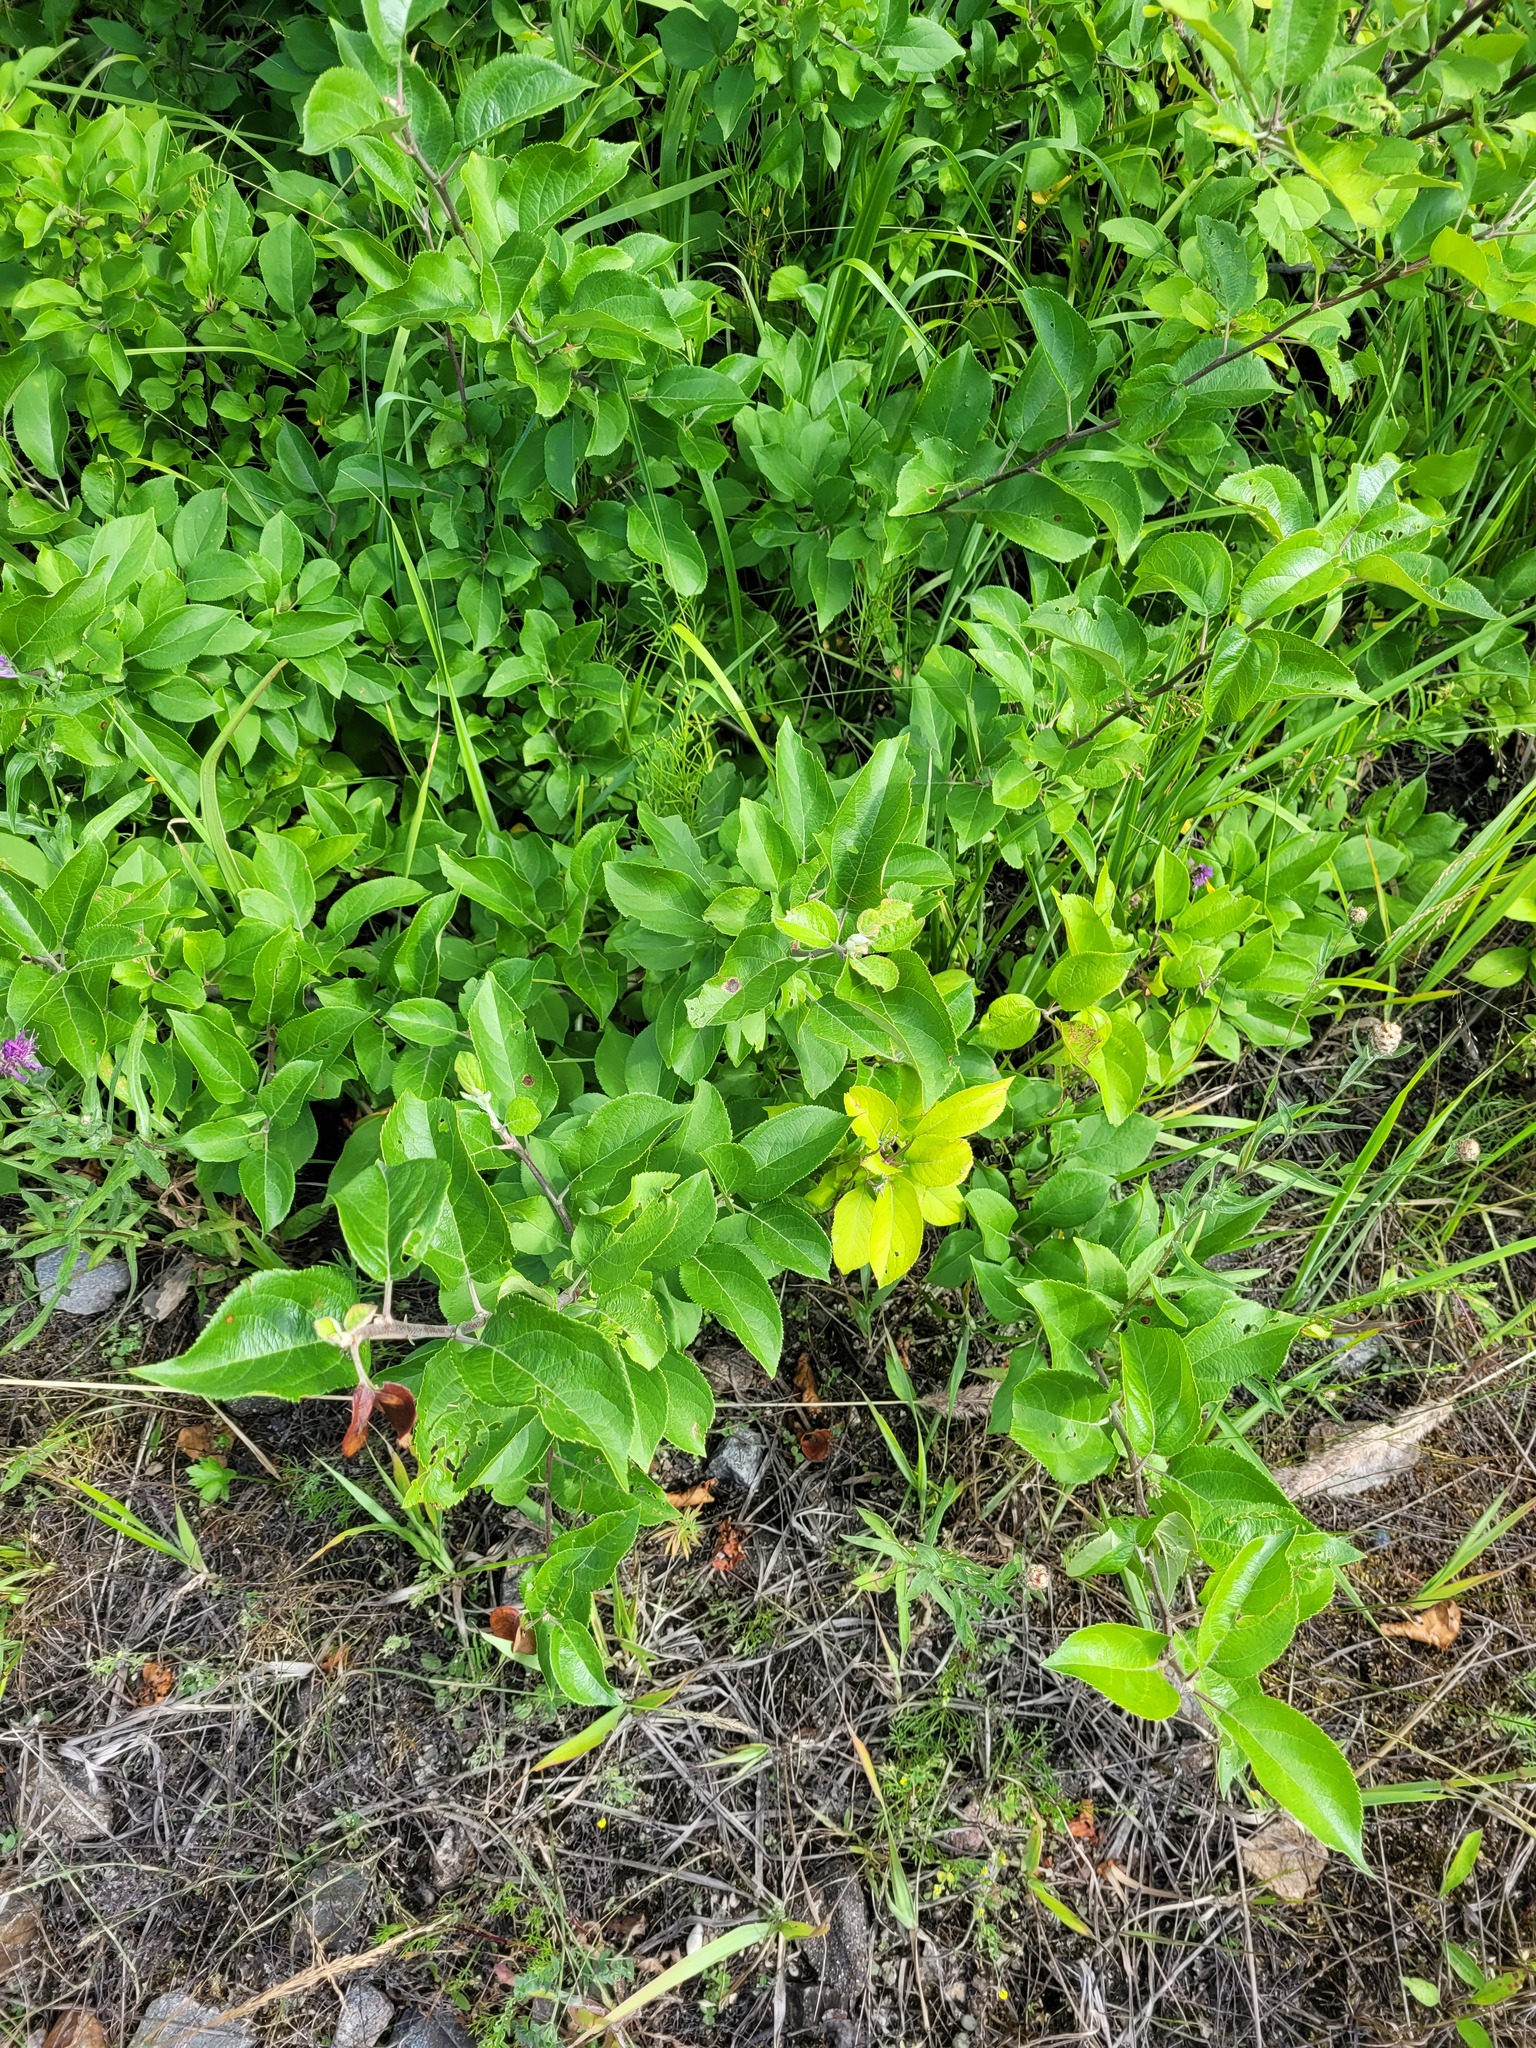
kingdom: Plantae
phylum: Tracheophyta
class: Magnoliopsida
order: Rosales
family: Rosaceae
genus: Malus
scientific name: Malus domestica
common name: Apple
